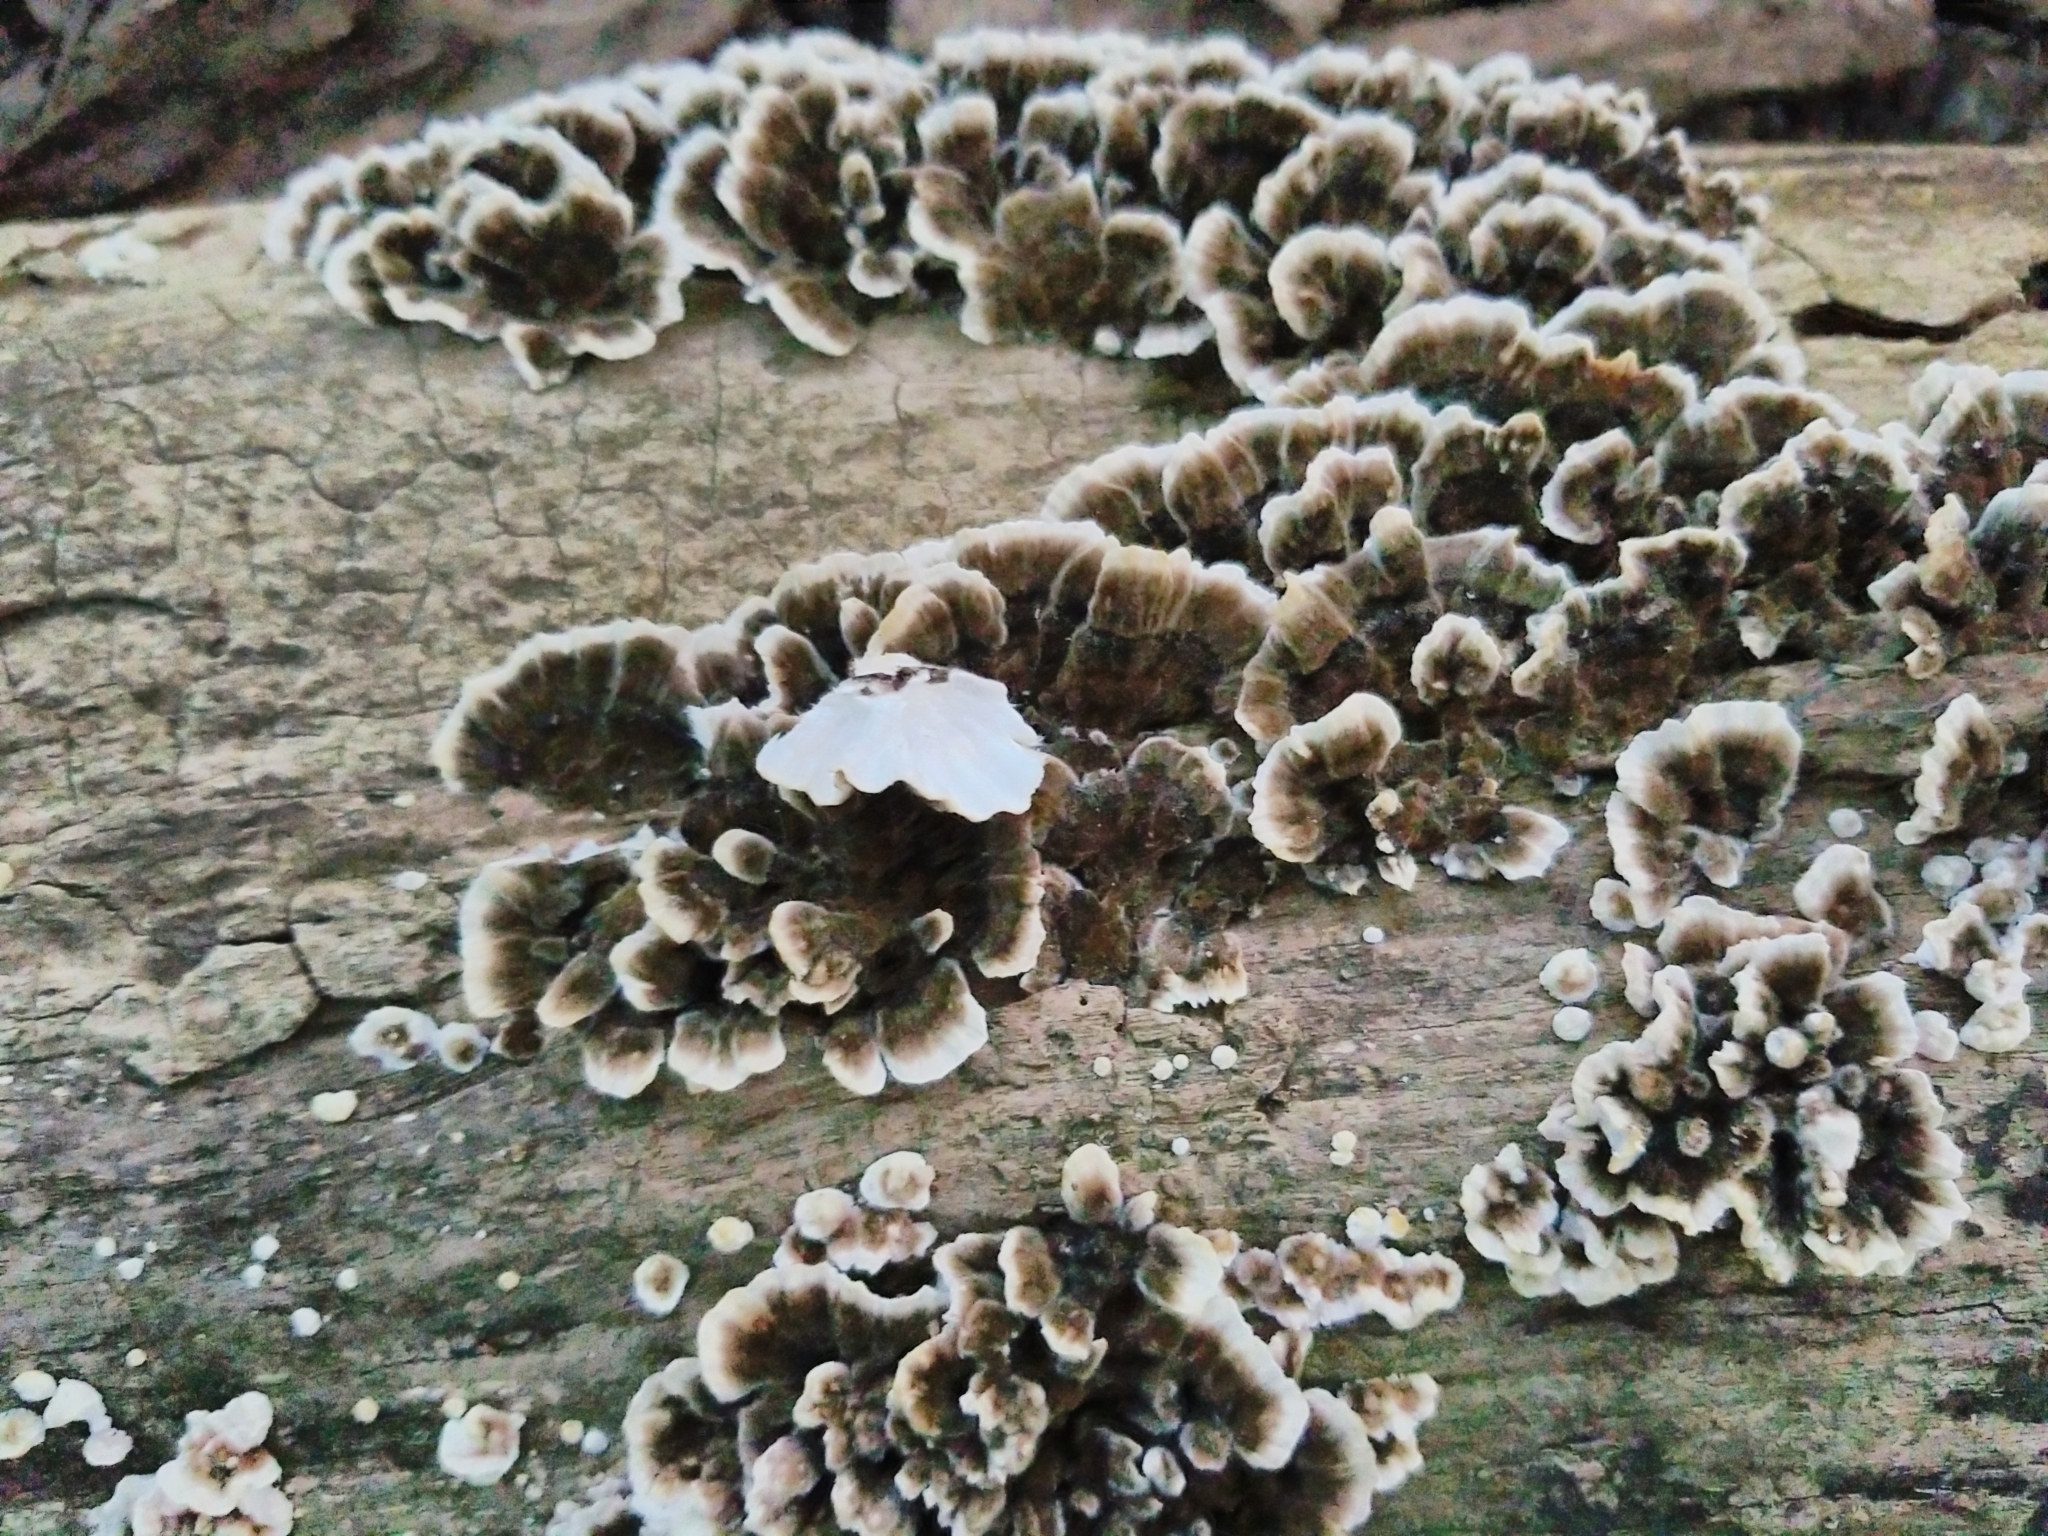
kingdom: Fungi
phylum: Basidiomycota
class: Agaricomycetes
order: Polyporales
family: Polyporaceae
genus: Trametes
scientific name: Trametes versicolor
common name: Turkeytail
